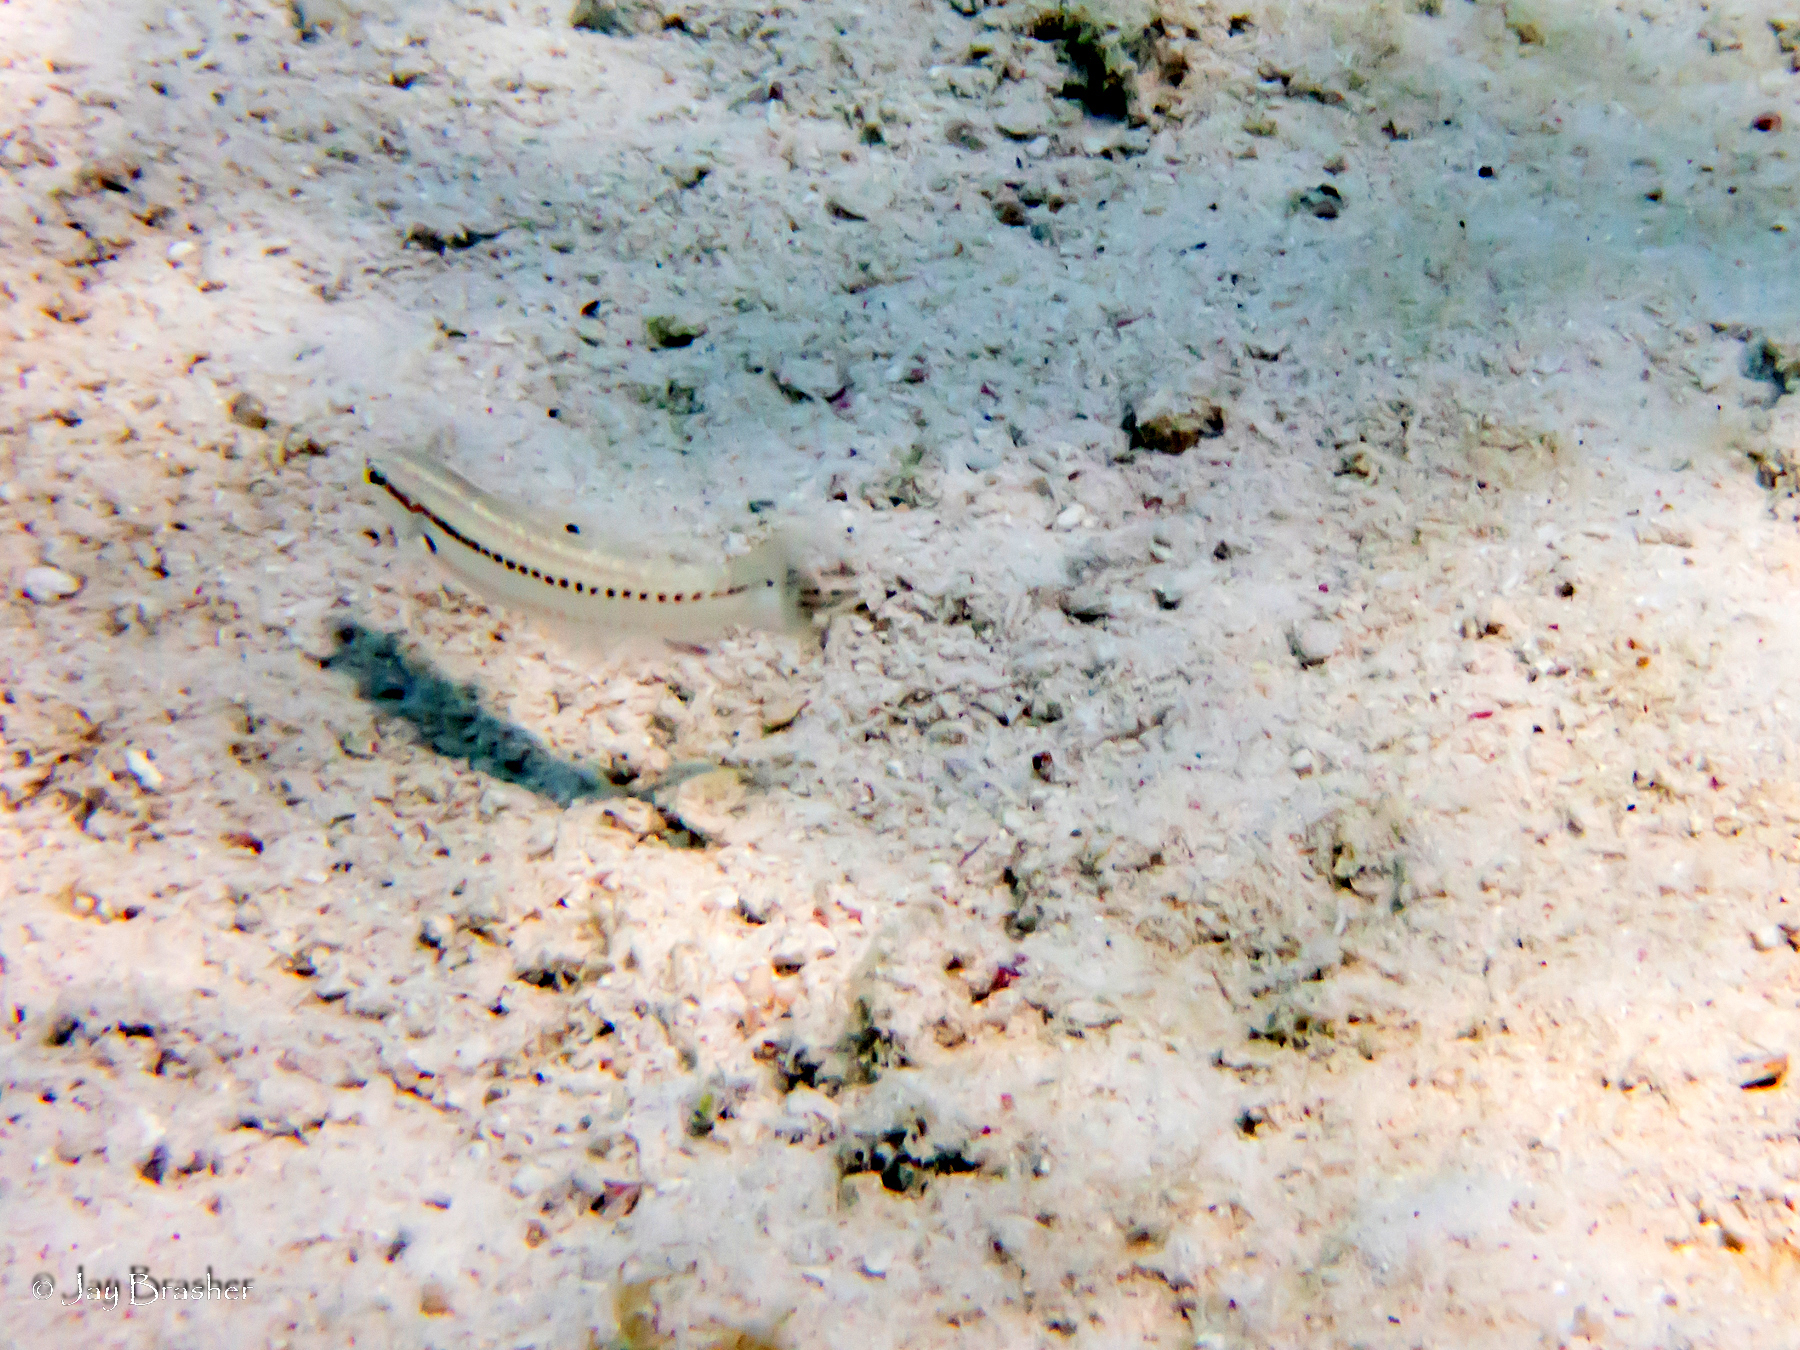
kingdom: Animalia
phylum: Chordata
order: Perciformes
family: Labridae
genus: Halichoeres
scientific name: Halichoeres bivittatus
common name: Slippery dick
